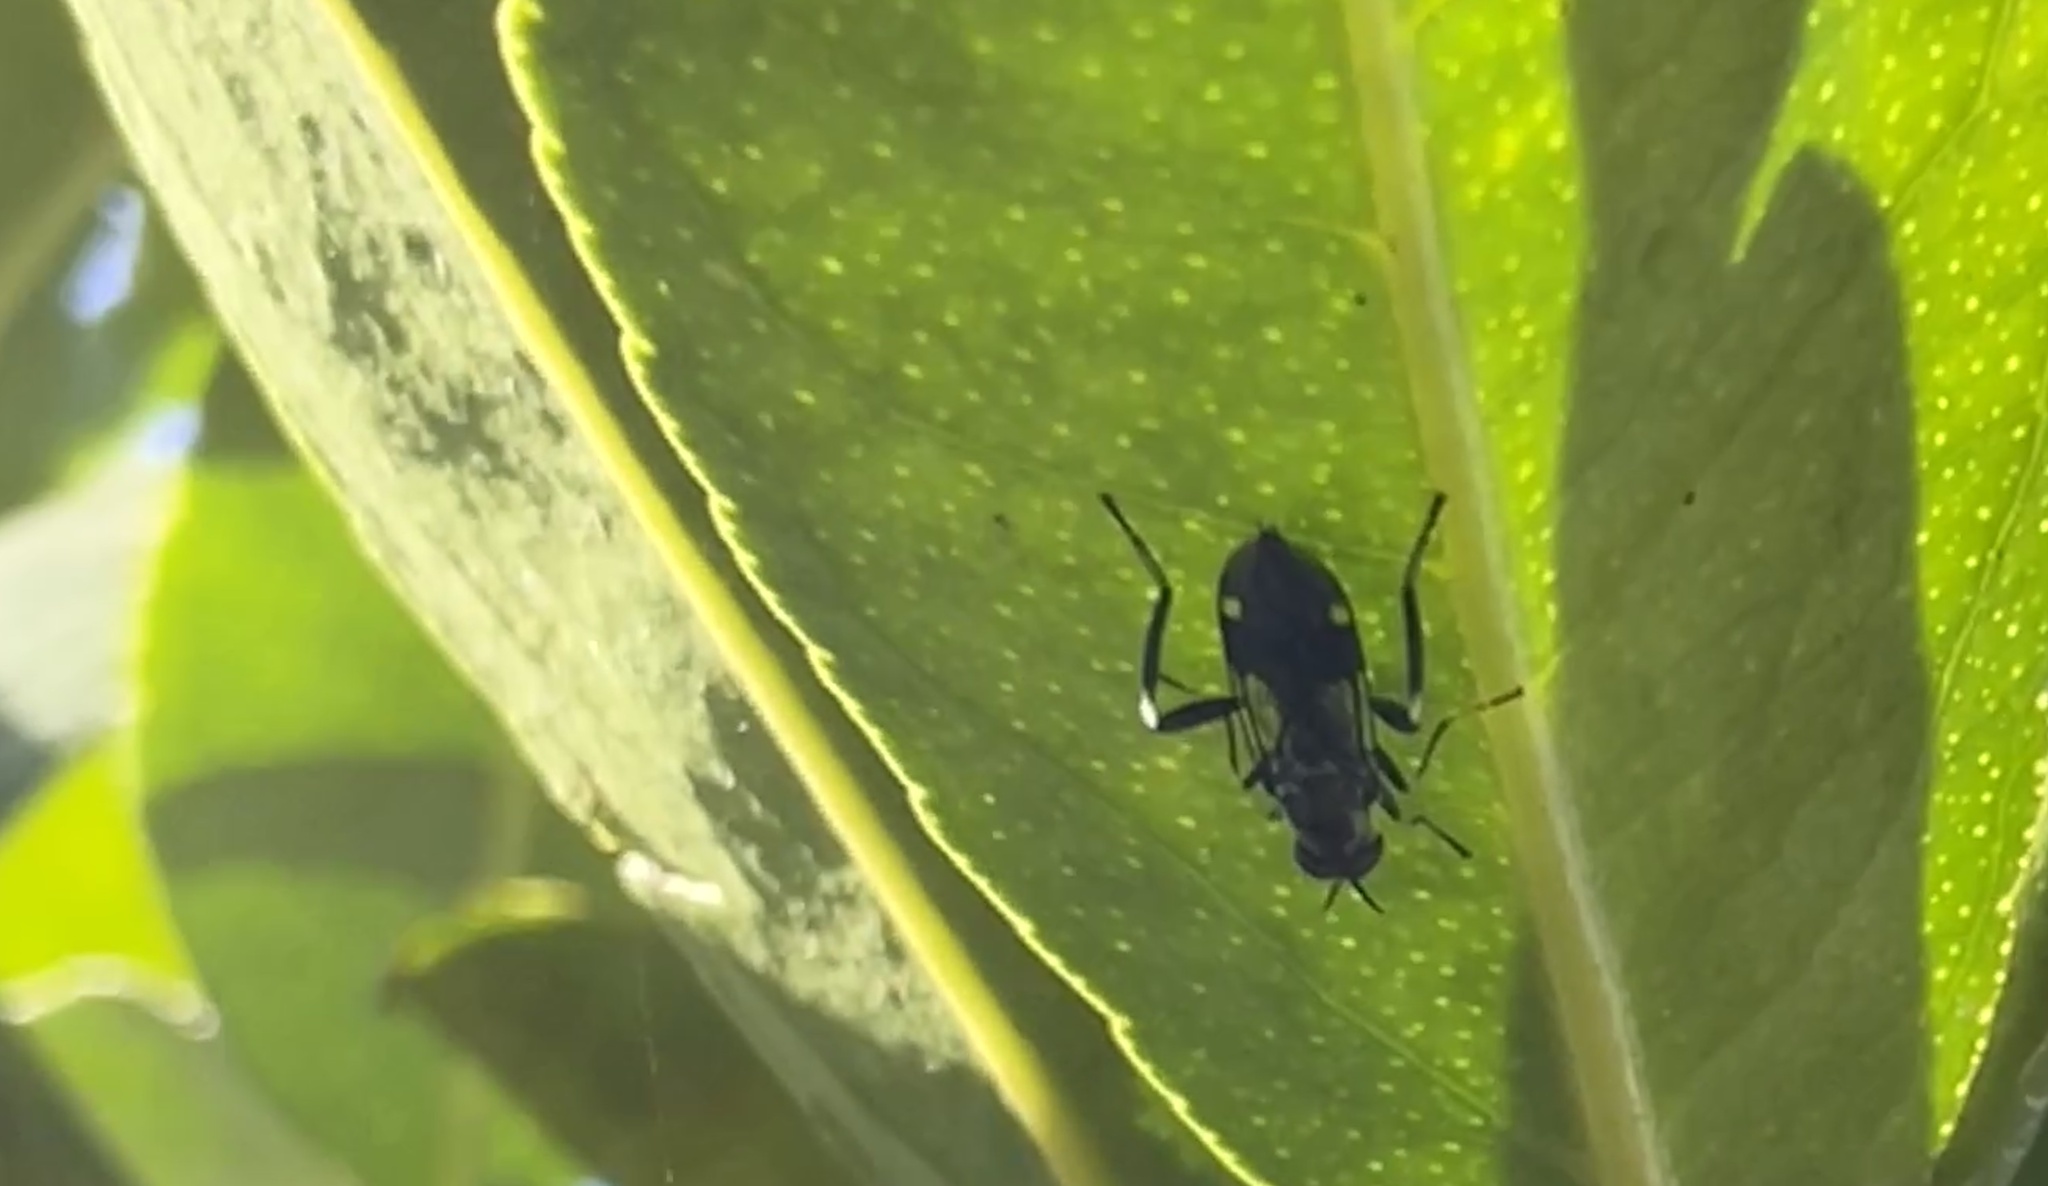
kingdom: Animalia
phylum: Arthropoda
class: Insecta
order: Diptera
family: Stratiomyidae
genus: Exaireta
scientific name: Exaireta spinigera
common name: Blue soldier fly
